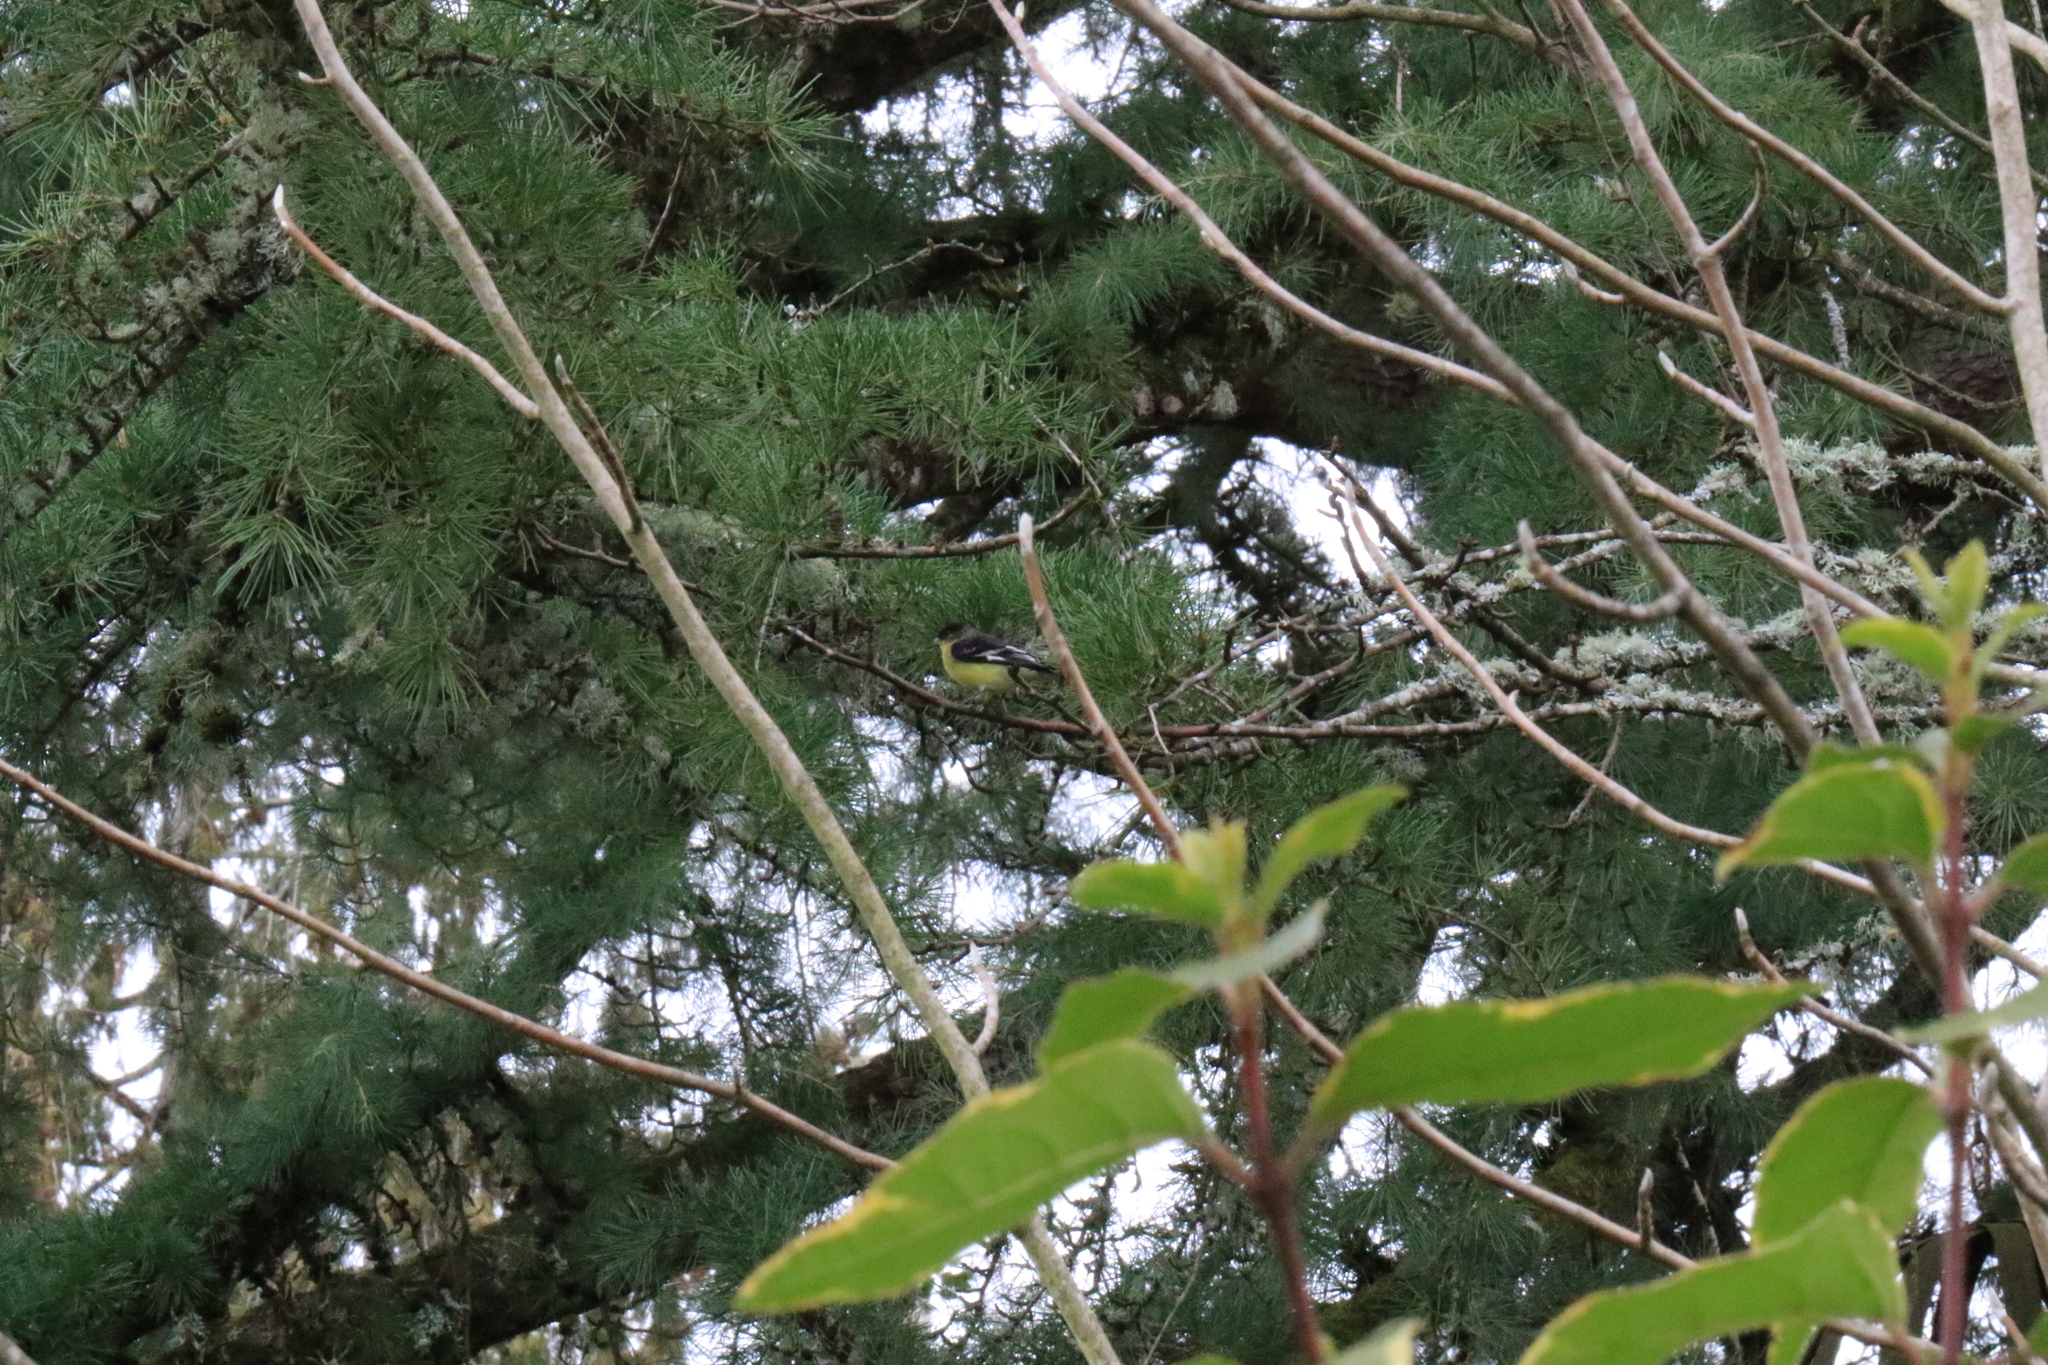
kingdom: Animalia
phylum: Chordata
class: Aves
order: Passeriformes
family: Fringillidae
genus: Spinus
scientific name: Spinus psaltria
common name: Lesser goldfinch
